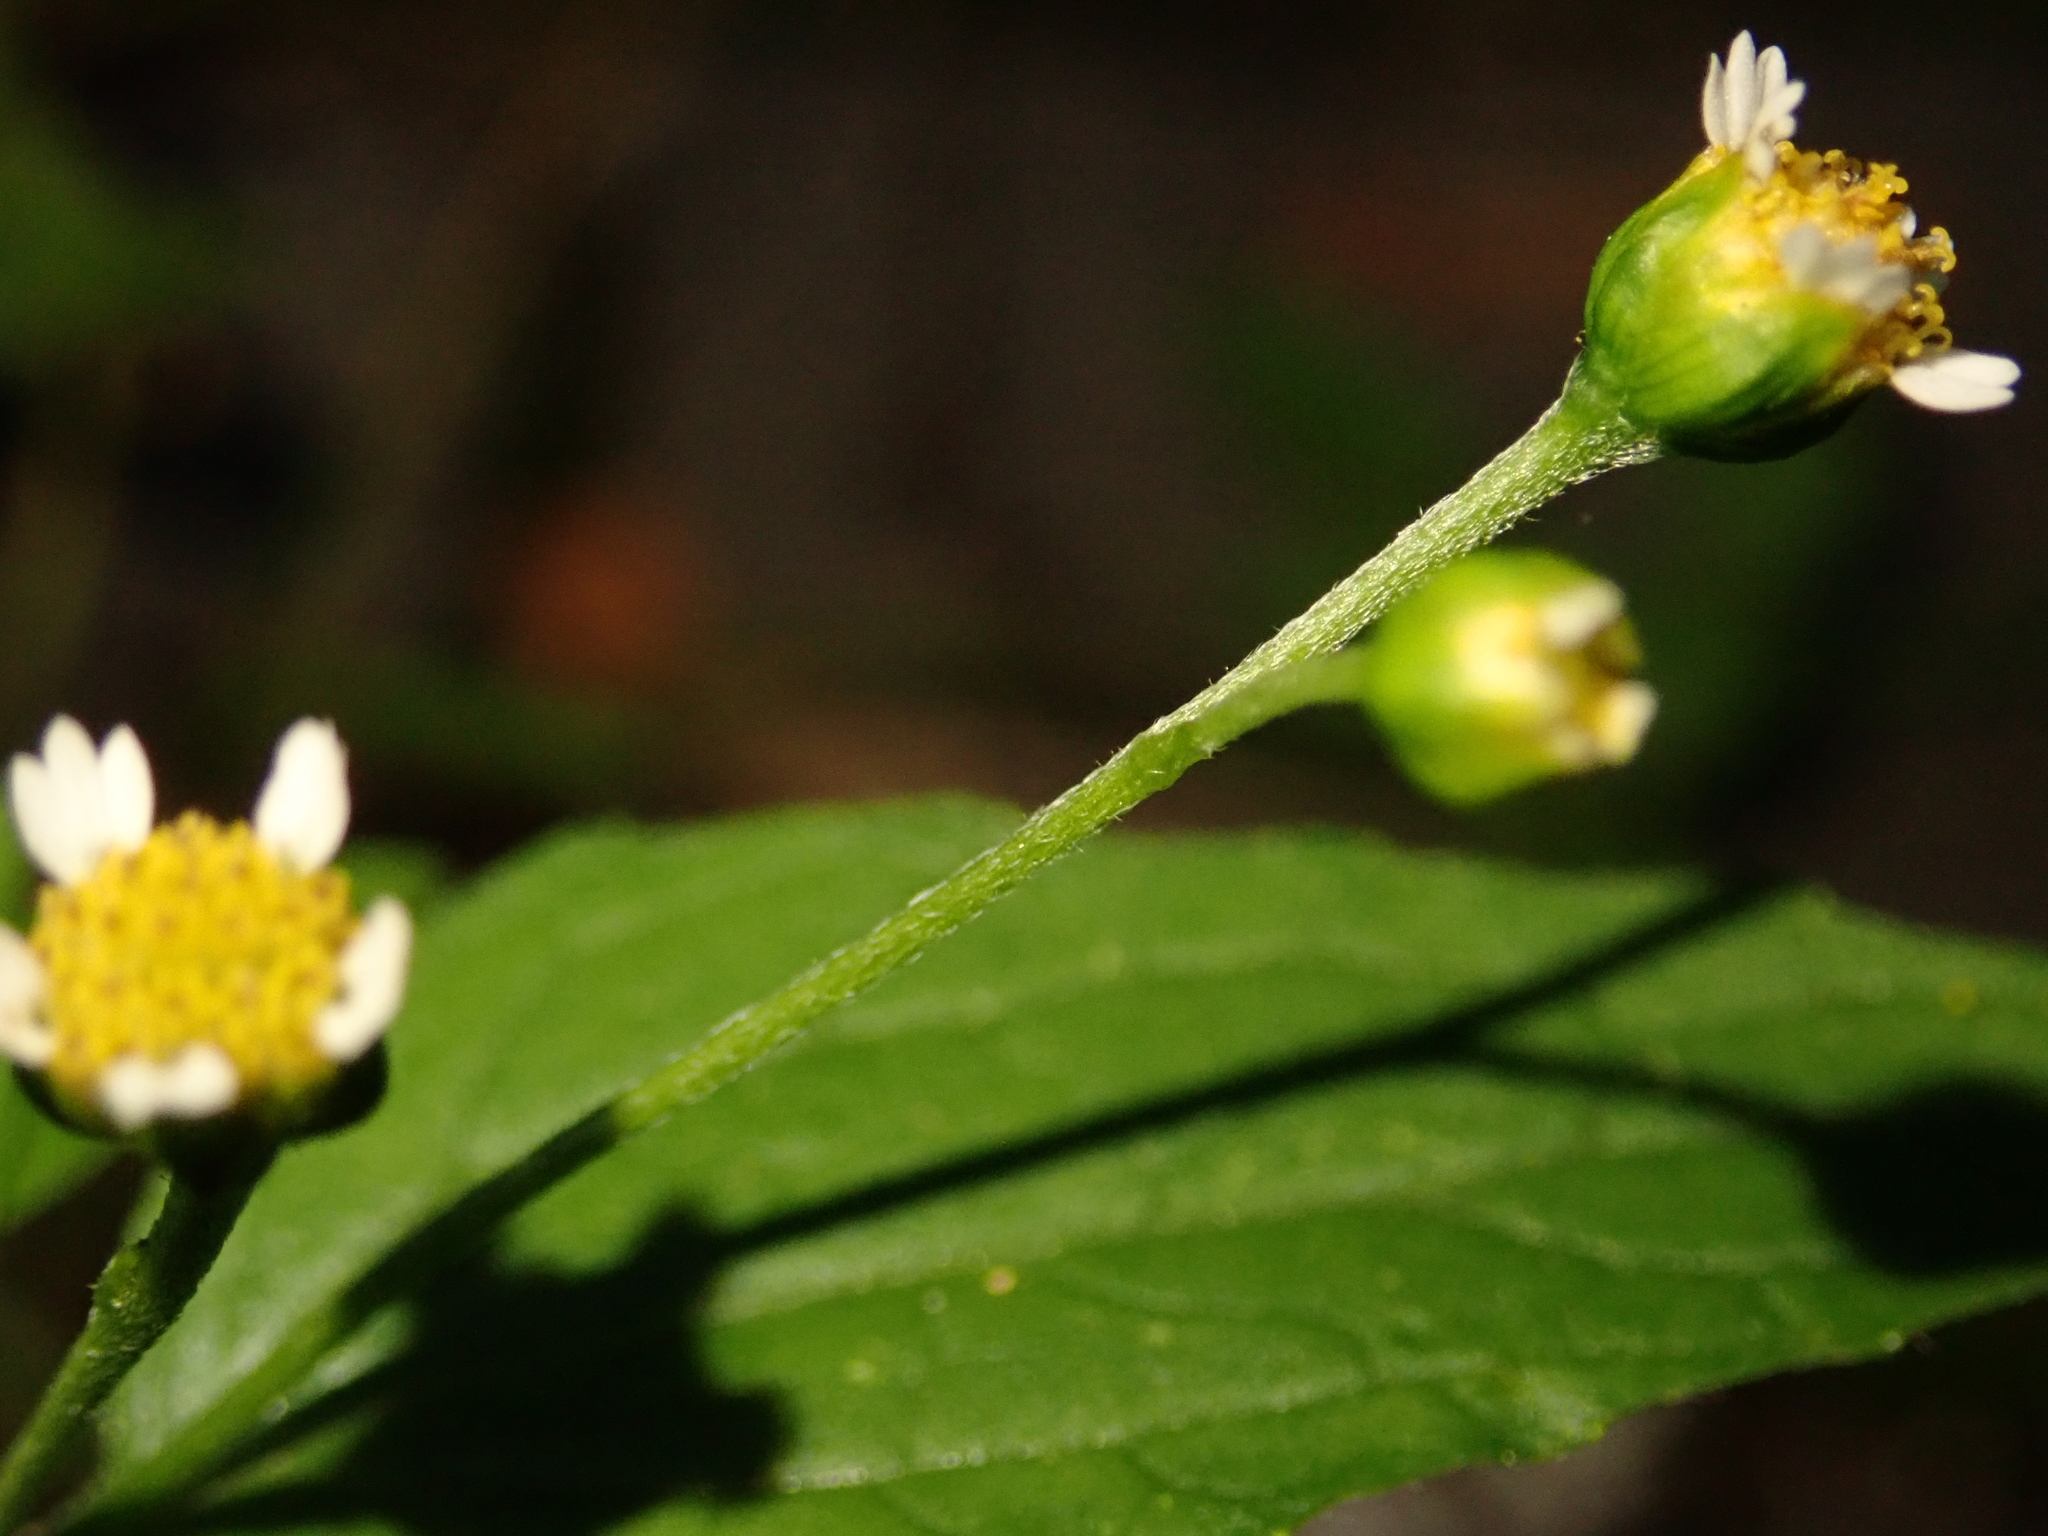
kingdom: Plantae
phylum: Tracheophyta
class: Magnoliopsida
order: Asterales
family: Asteraceae
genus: Galinsoga
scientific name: Galinsoga parviflora
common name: Gallant soldier
